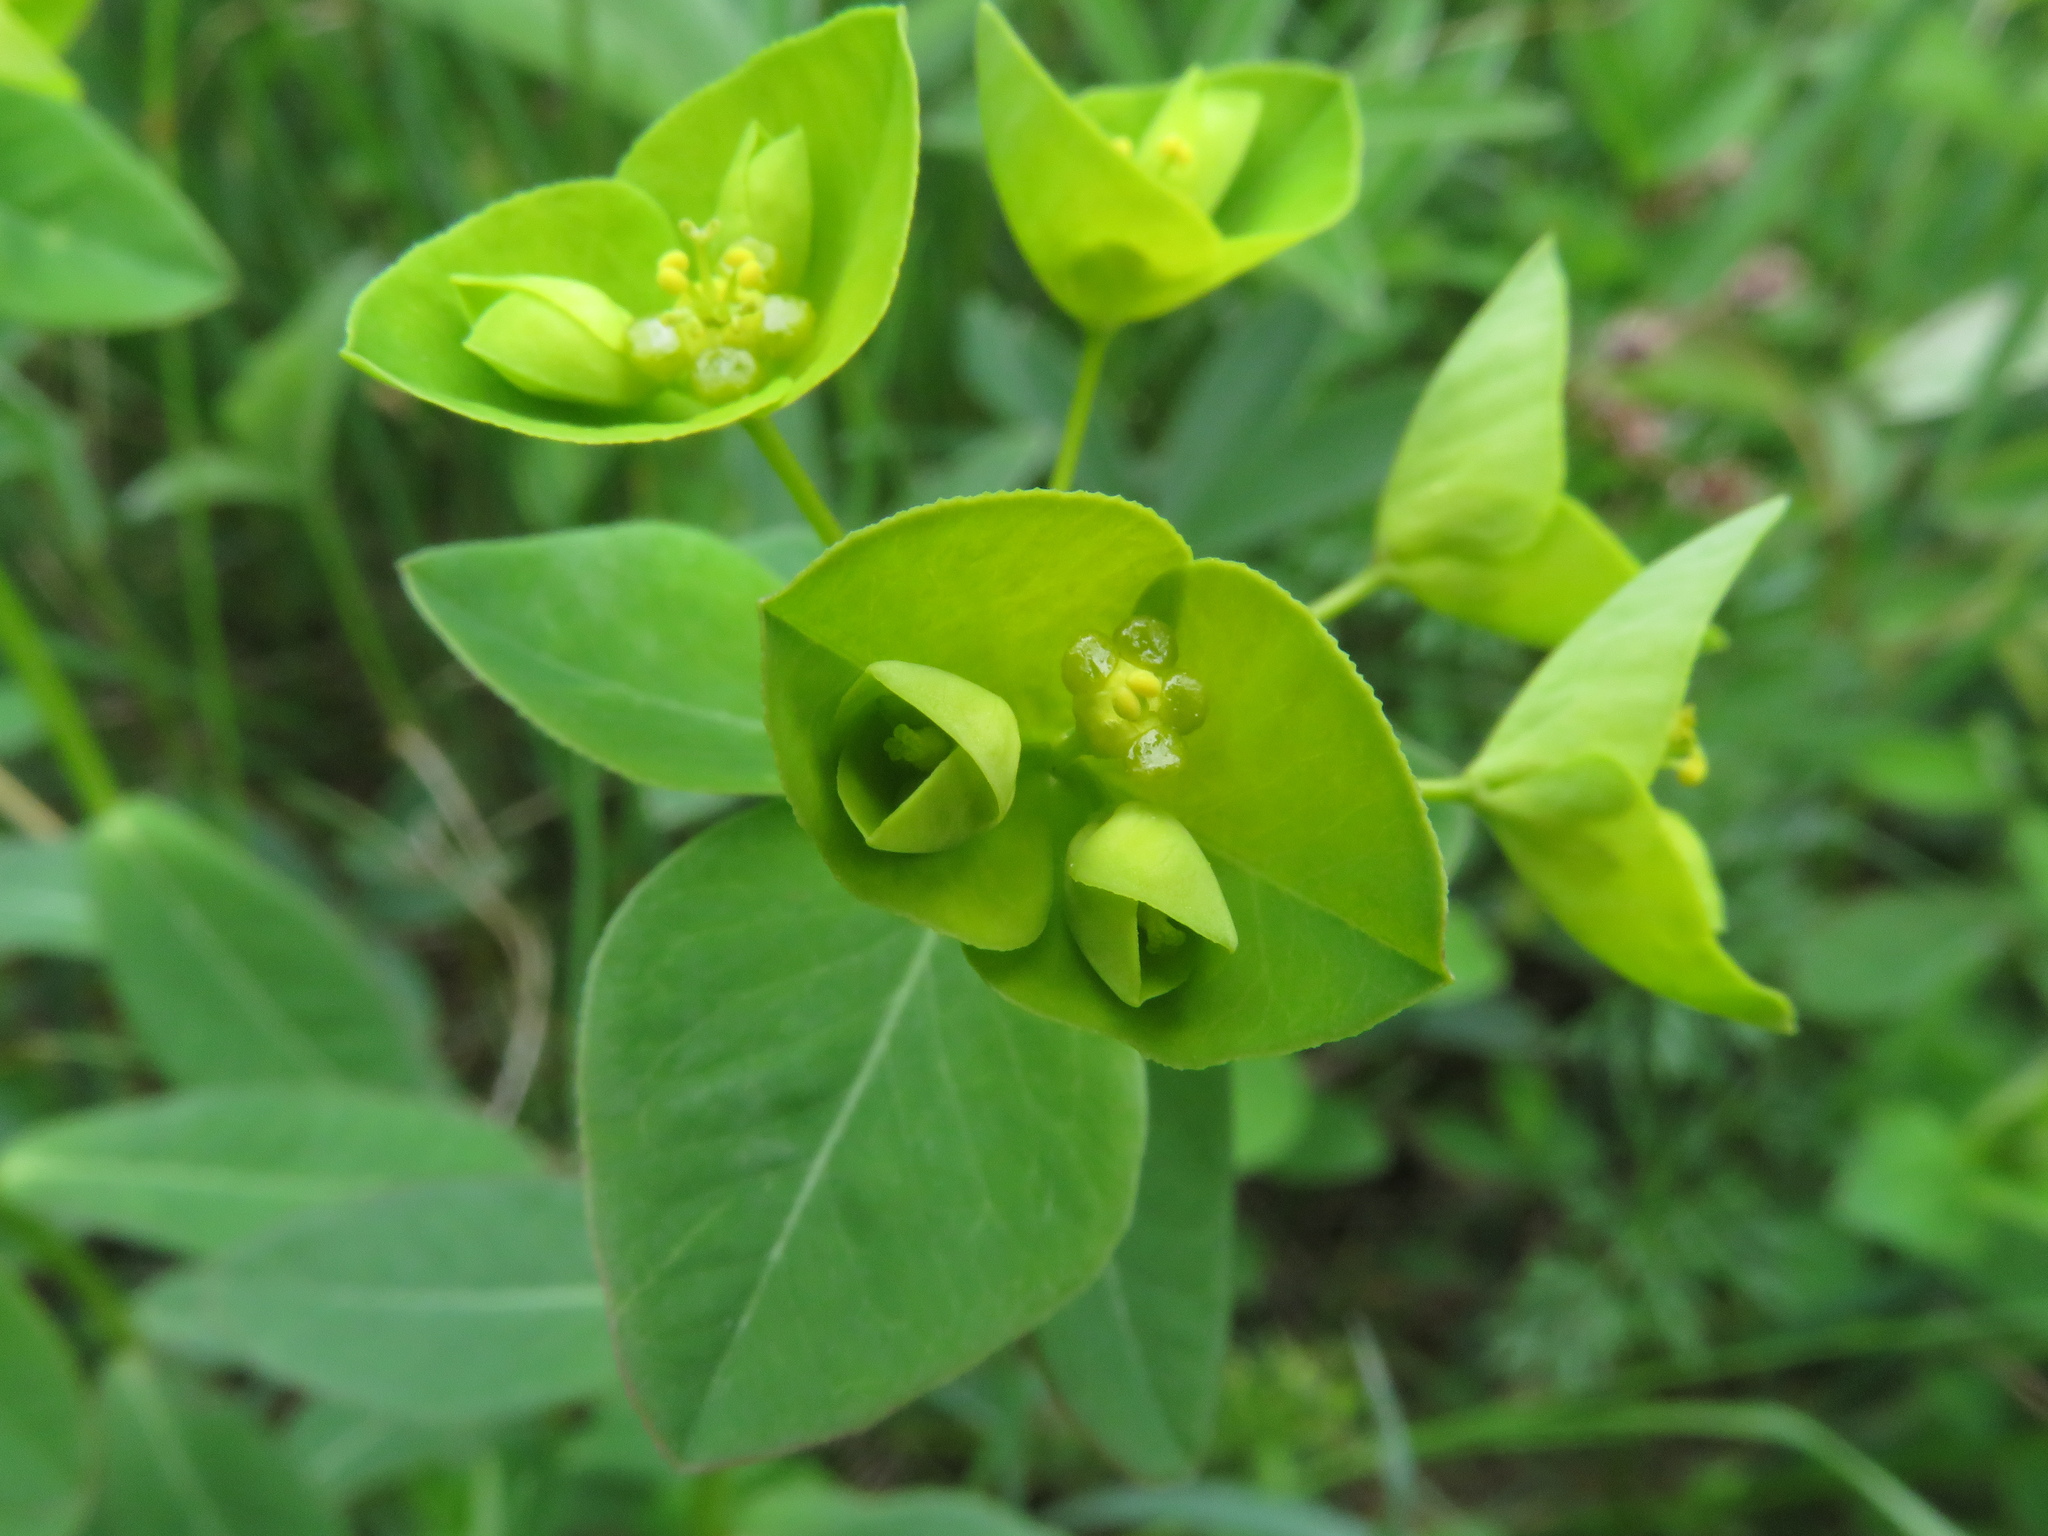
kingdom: Plantae
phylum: Tracheophyta
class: Magnoliopsida
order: Malpighiales
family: Euphorbiaceae
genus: Euphorbia
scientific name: Euphorbia angulata
